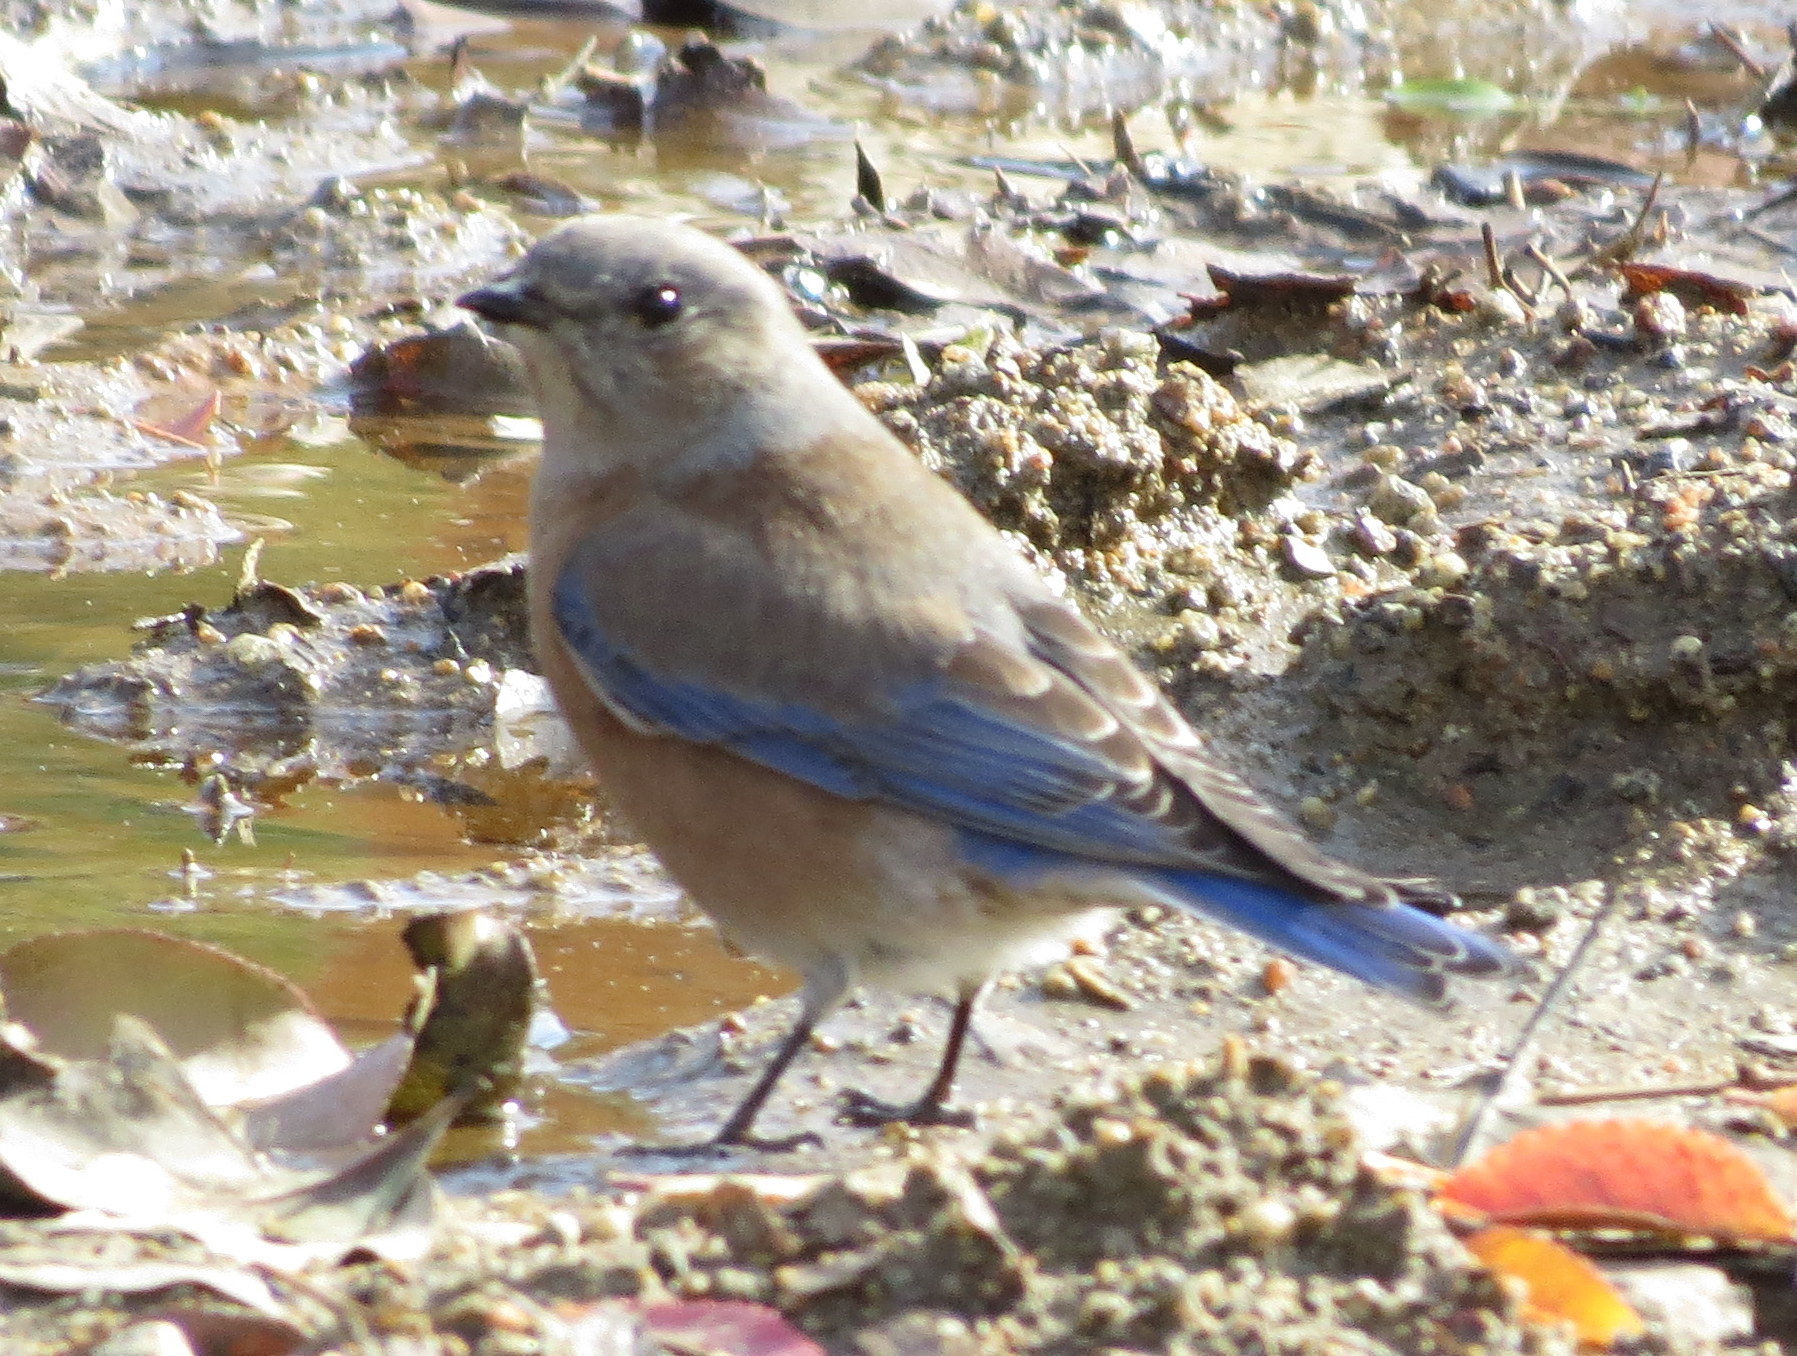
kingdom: Animalia
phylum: Chordata
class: Aves
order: Passeriformes
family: Turdidae
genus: Sialia
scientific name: Sialia mexicana
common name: Western bluebird
